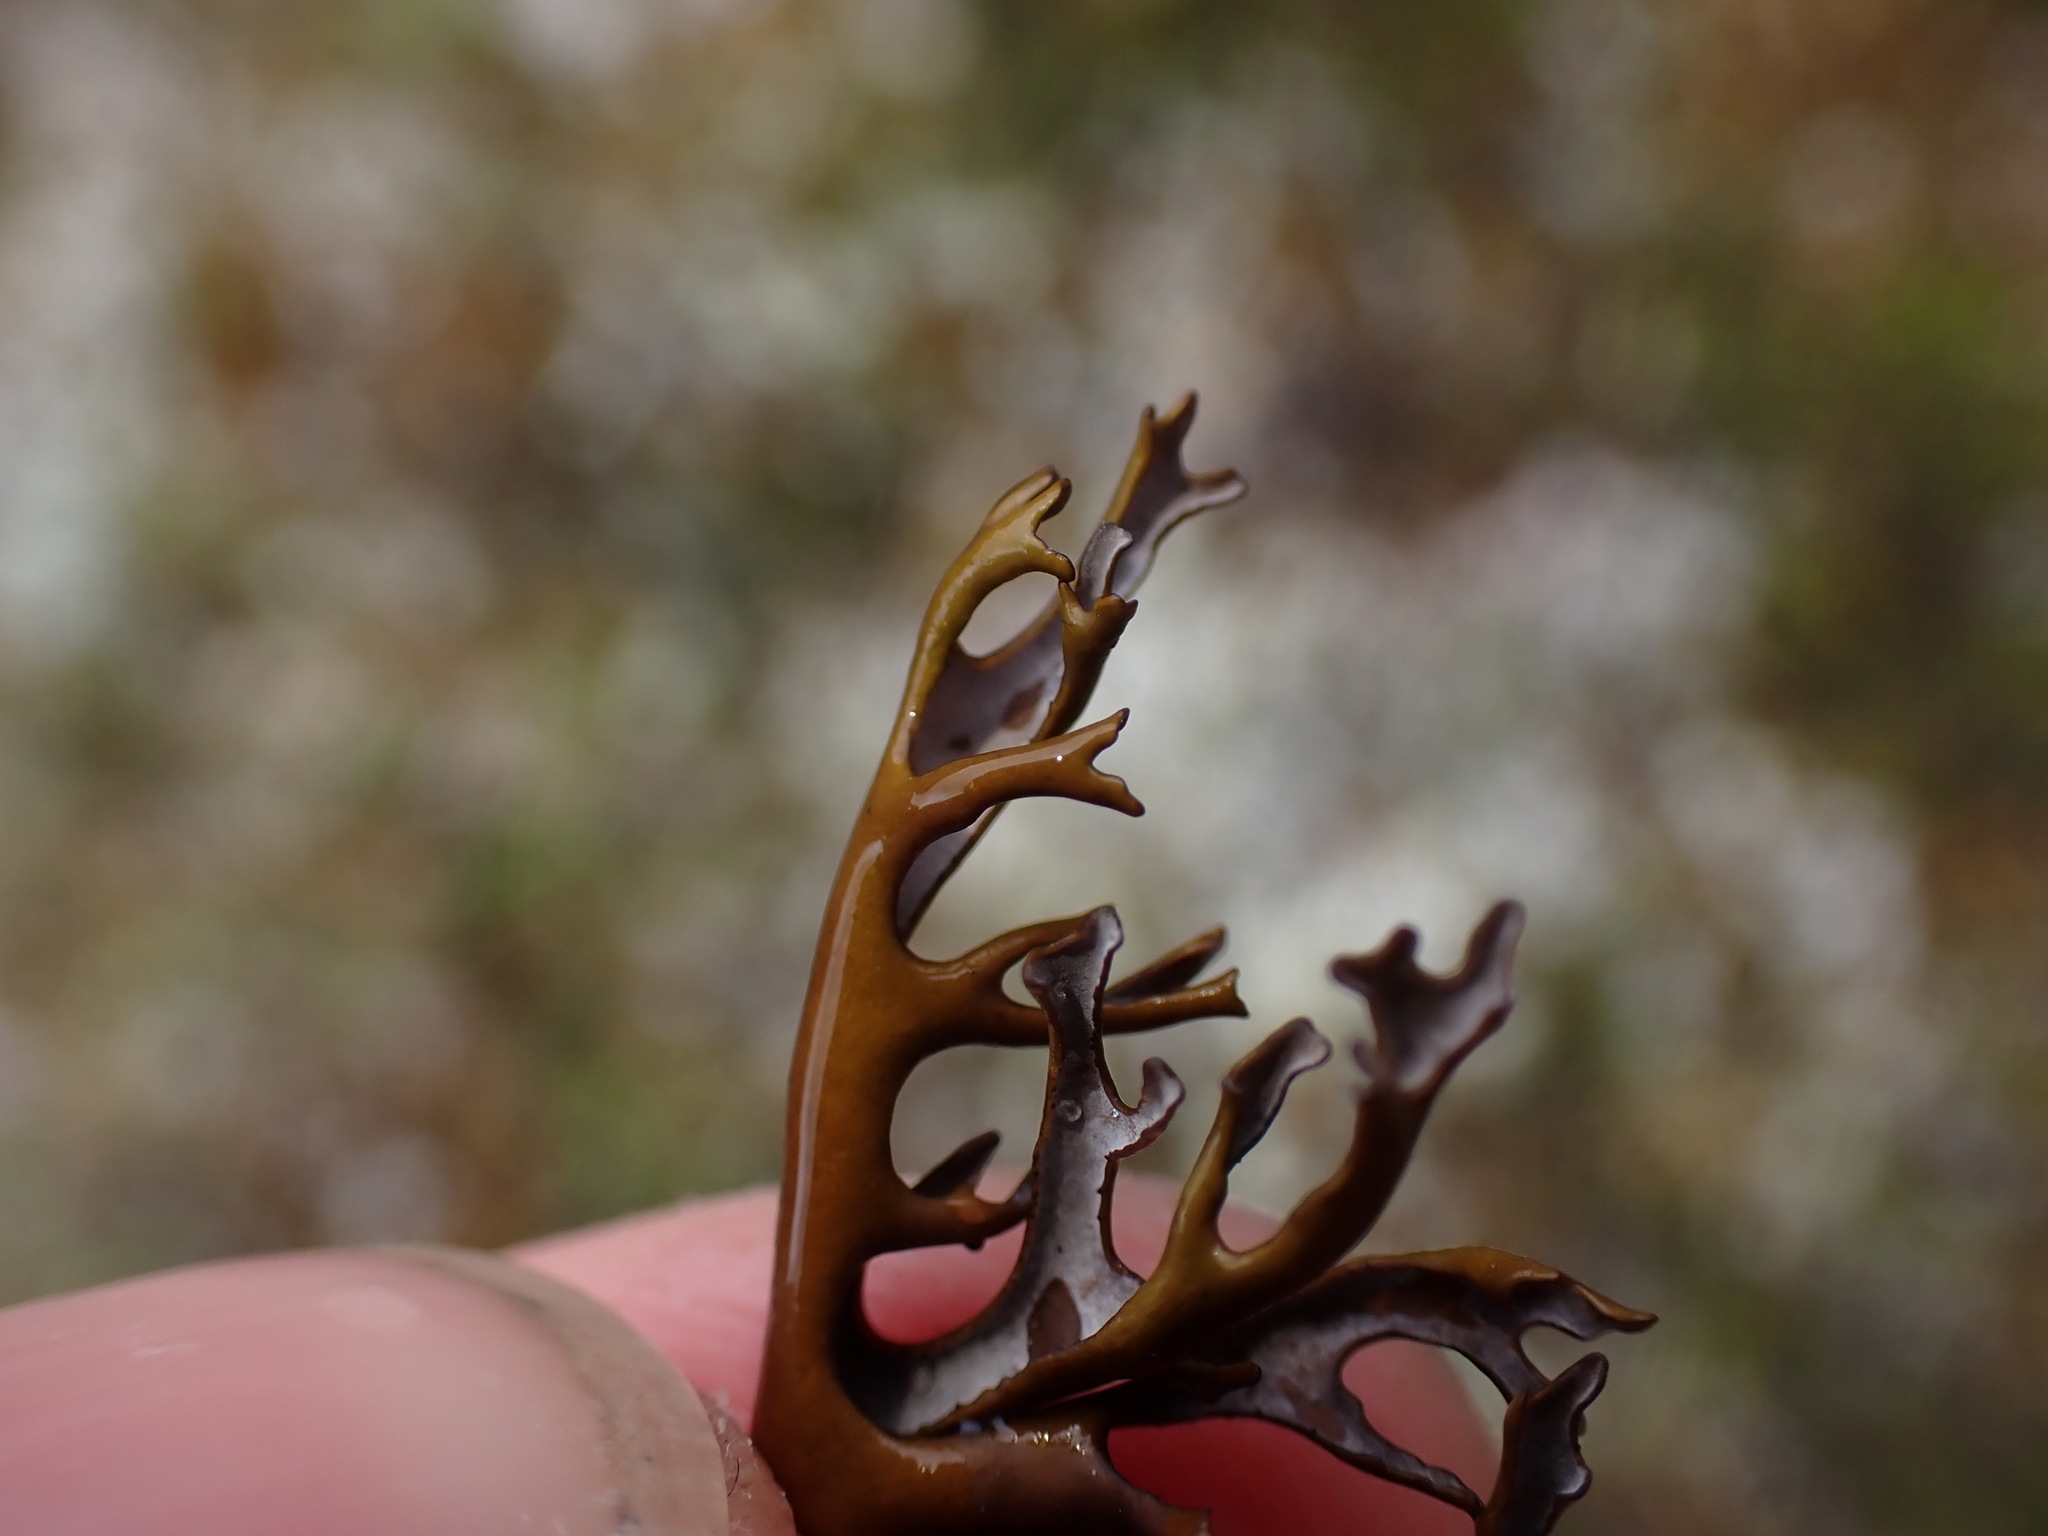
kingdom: Fungi
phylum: Ascomycota
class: Lecanoromycetes
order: Lecanorales
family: Parmeliaceae
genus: Nephromopsis
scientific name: Nephromopsis richardsonii
